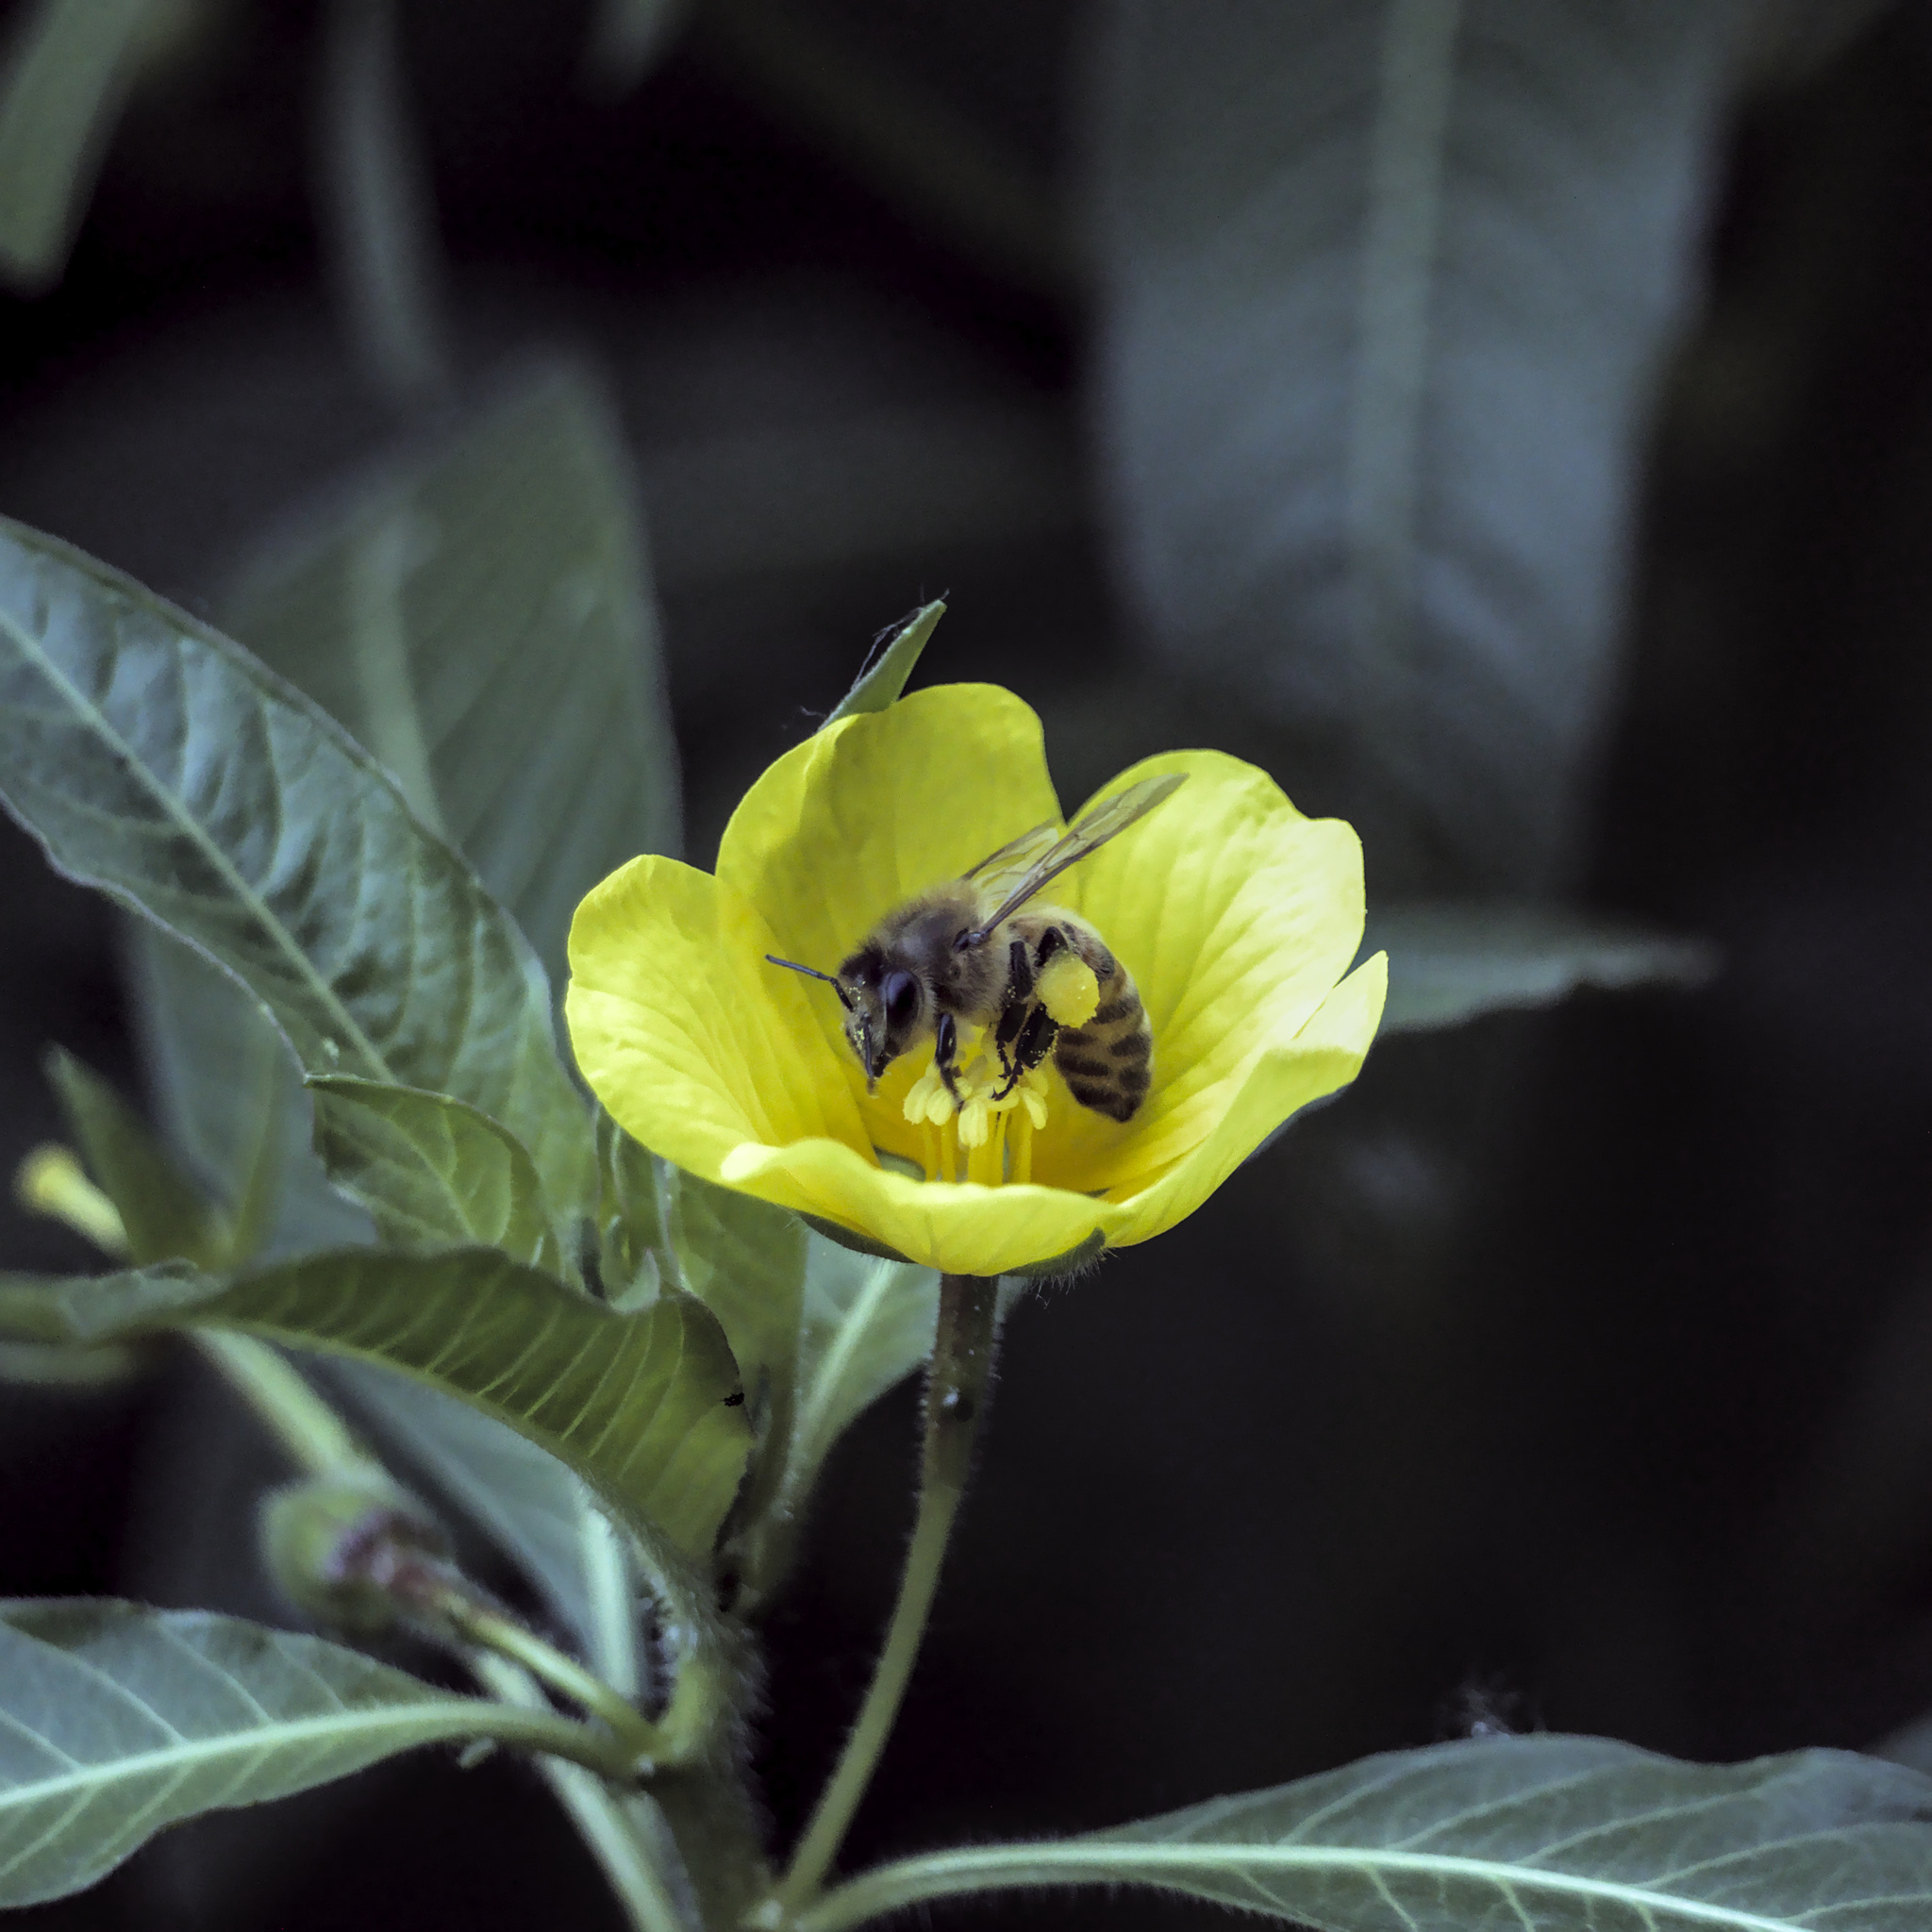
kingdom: Animalia
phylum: Arthropoda
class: Insecta
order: Hymenoptera
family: Apidae
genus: Apis
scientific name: Apis mellifera
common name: Honey bee
